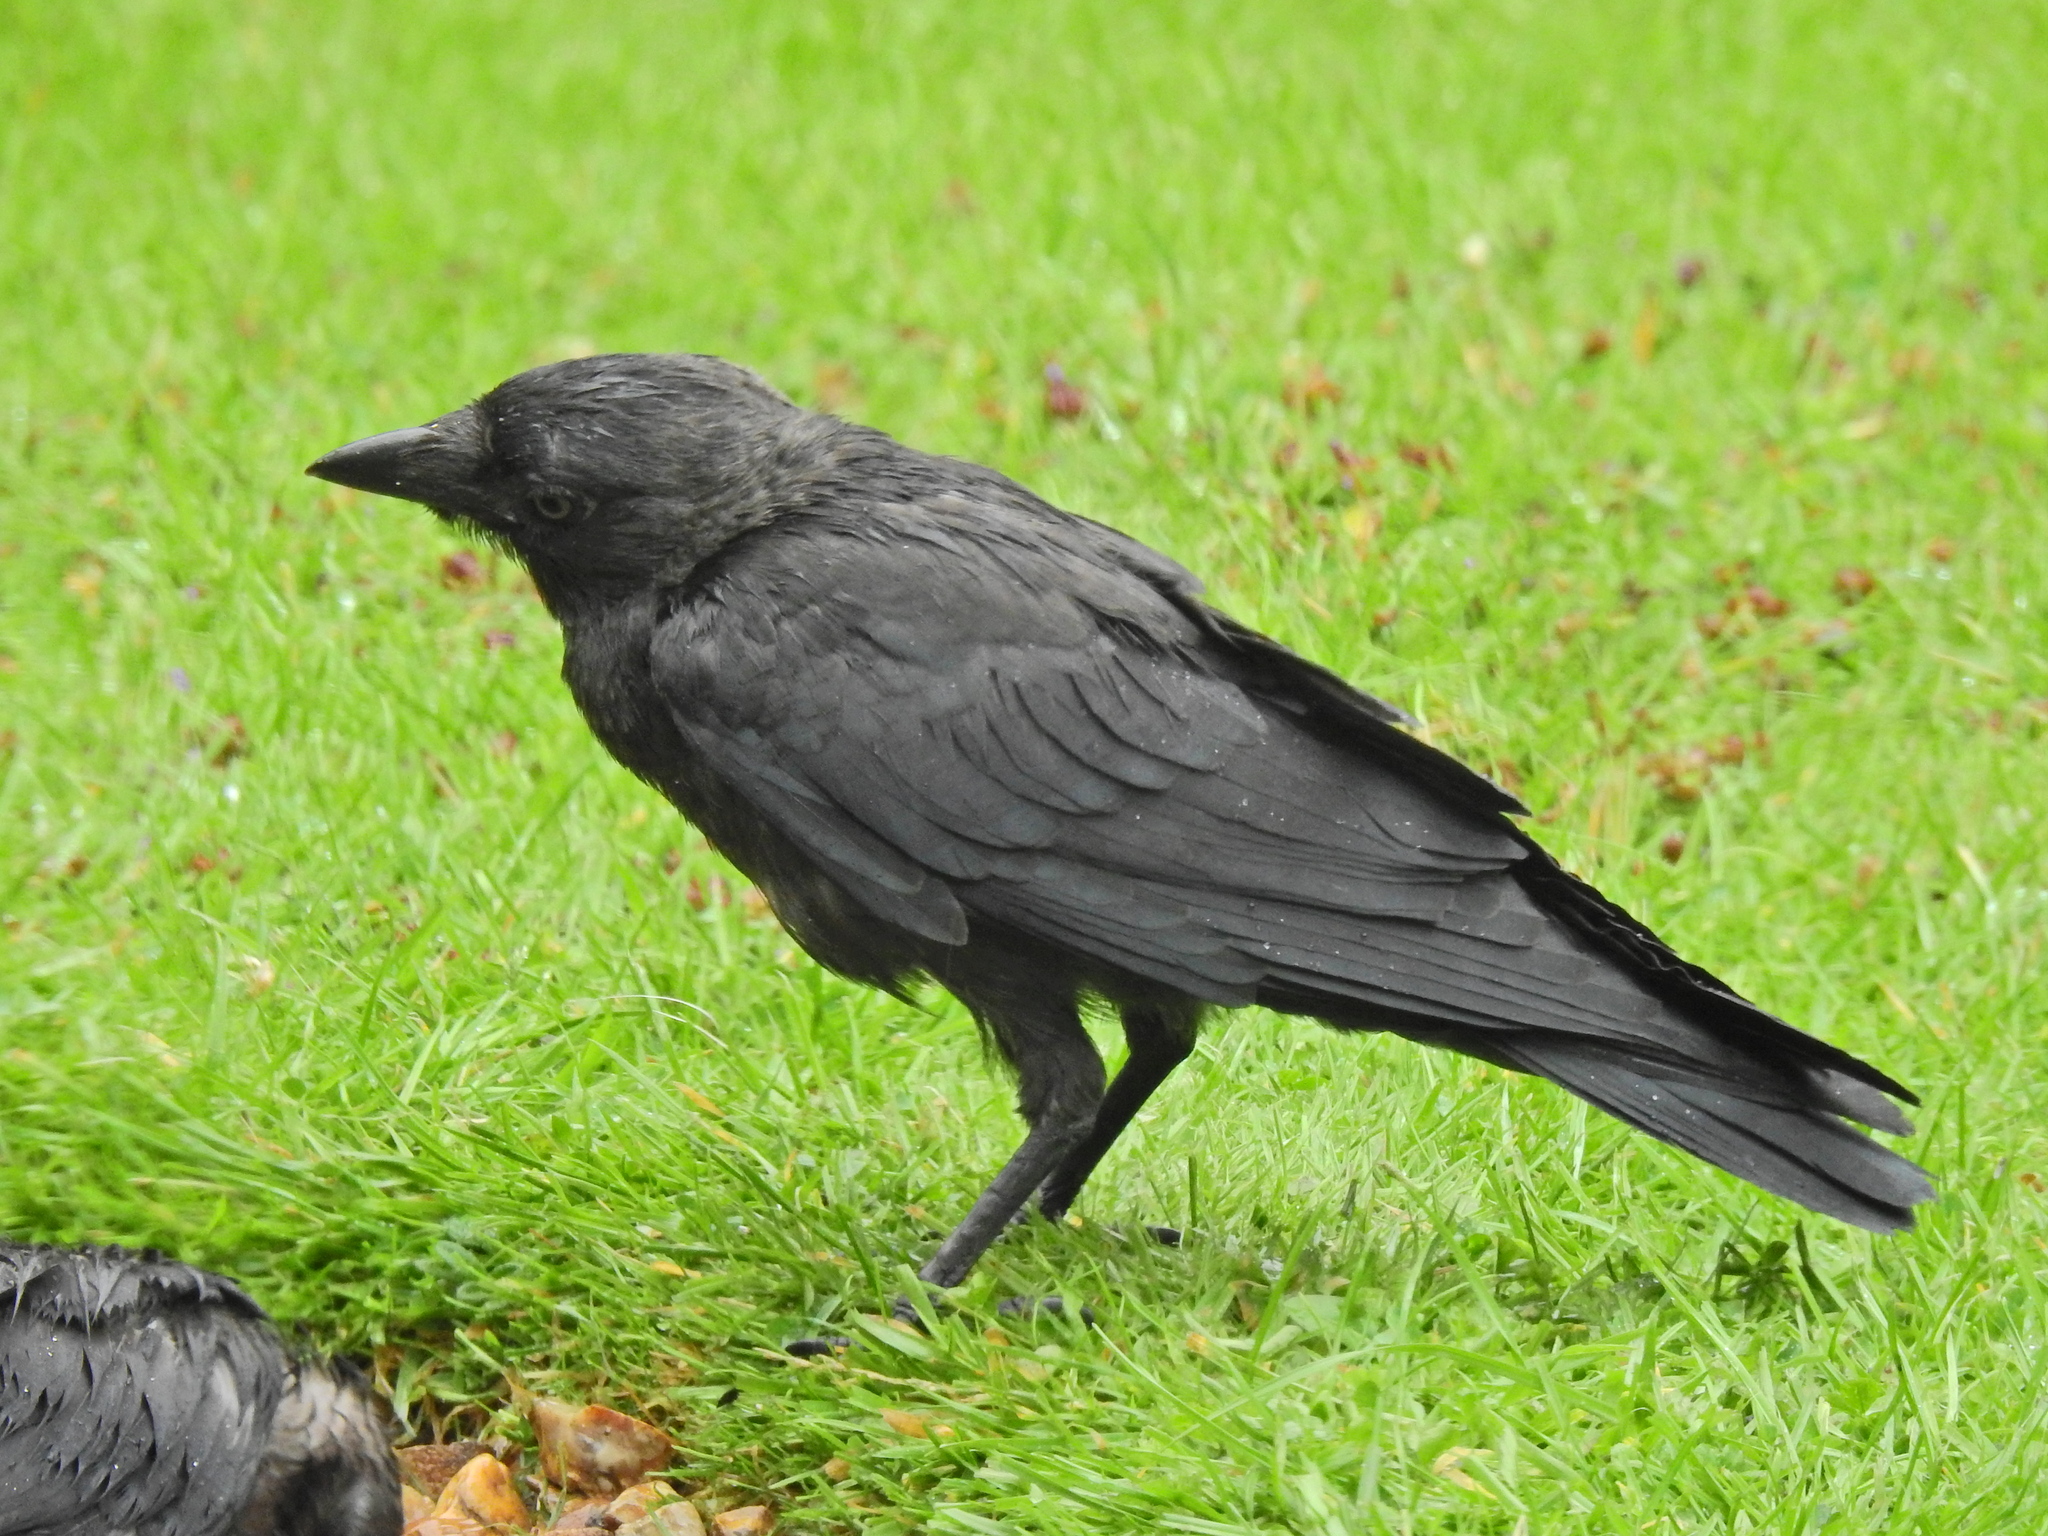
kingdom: Animalia
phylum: Chordata
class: Aves
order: Passeriformes
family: Corvidae
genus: Coloeus
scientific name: Coloeus monedula
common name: Western jackdaw
